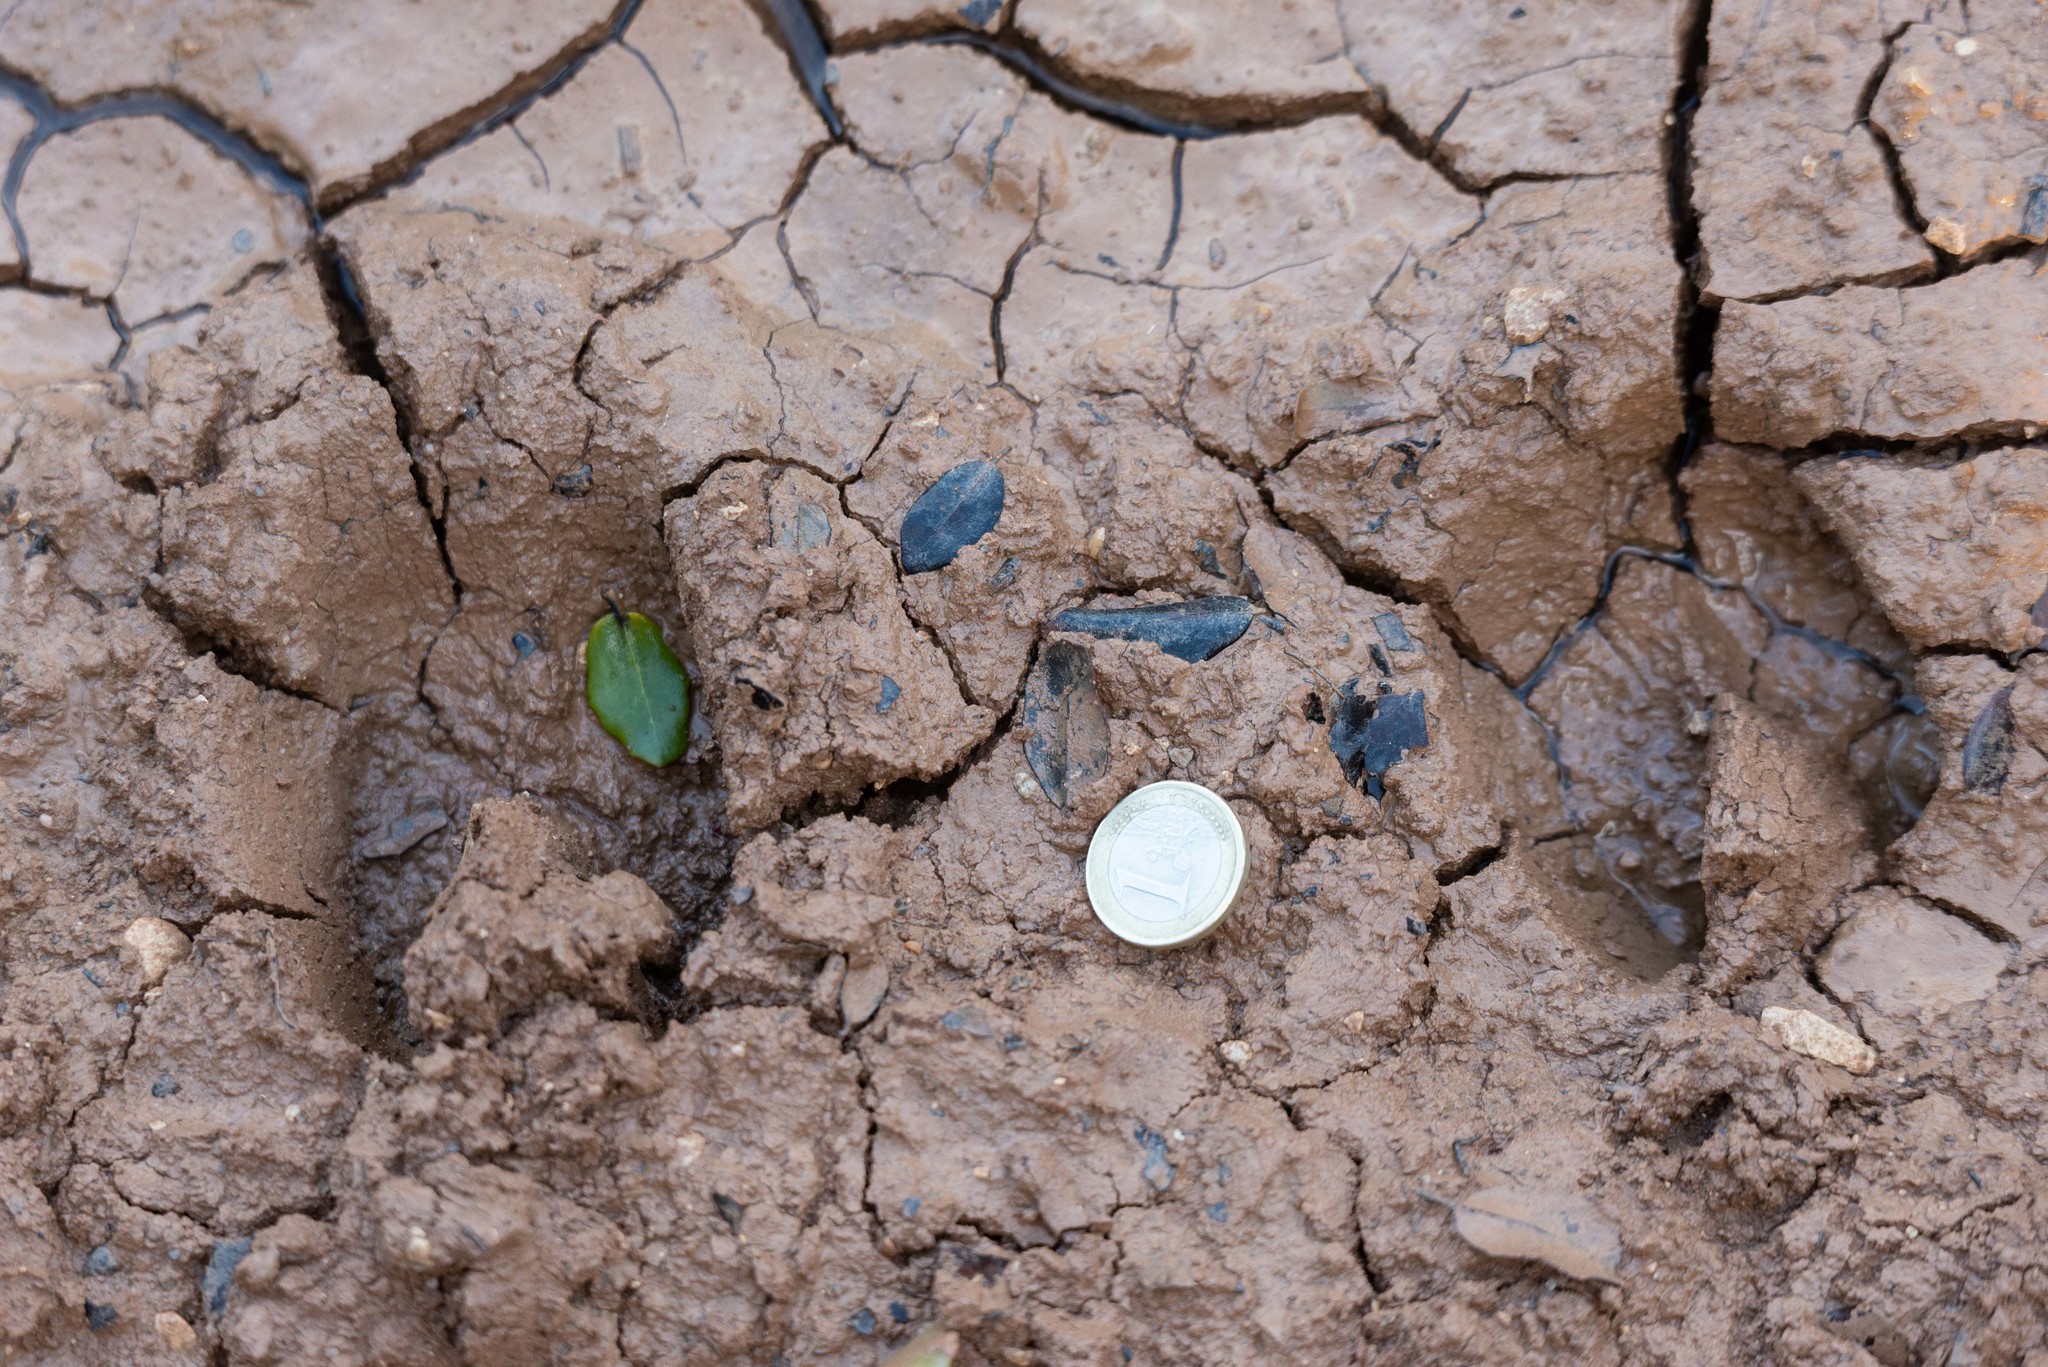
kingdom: Animalia
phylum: Chordata
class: Mammalia
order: Artiodactyla
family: Suidae
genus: Sus
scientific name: Sus scrofa
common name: Wild boar
